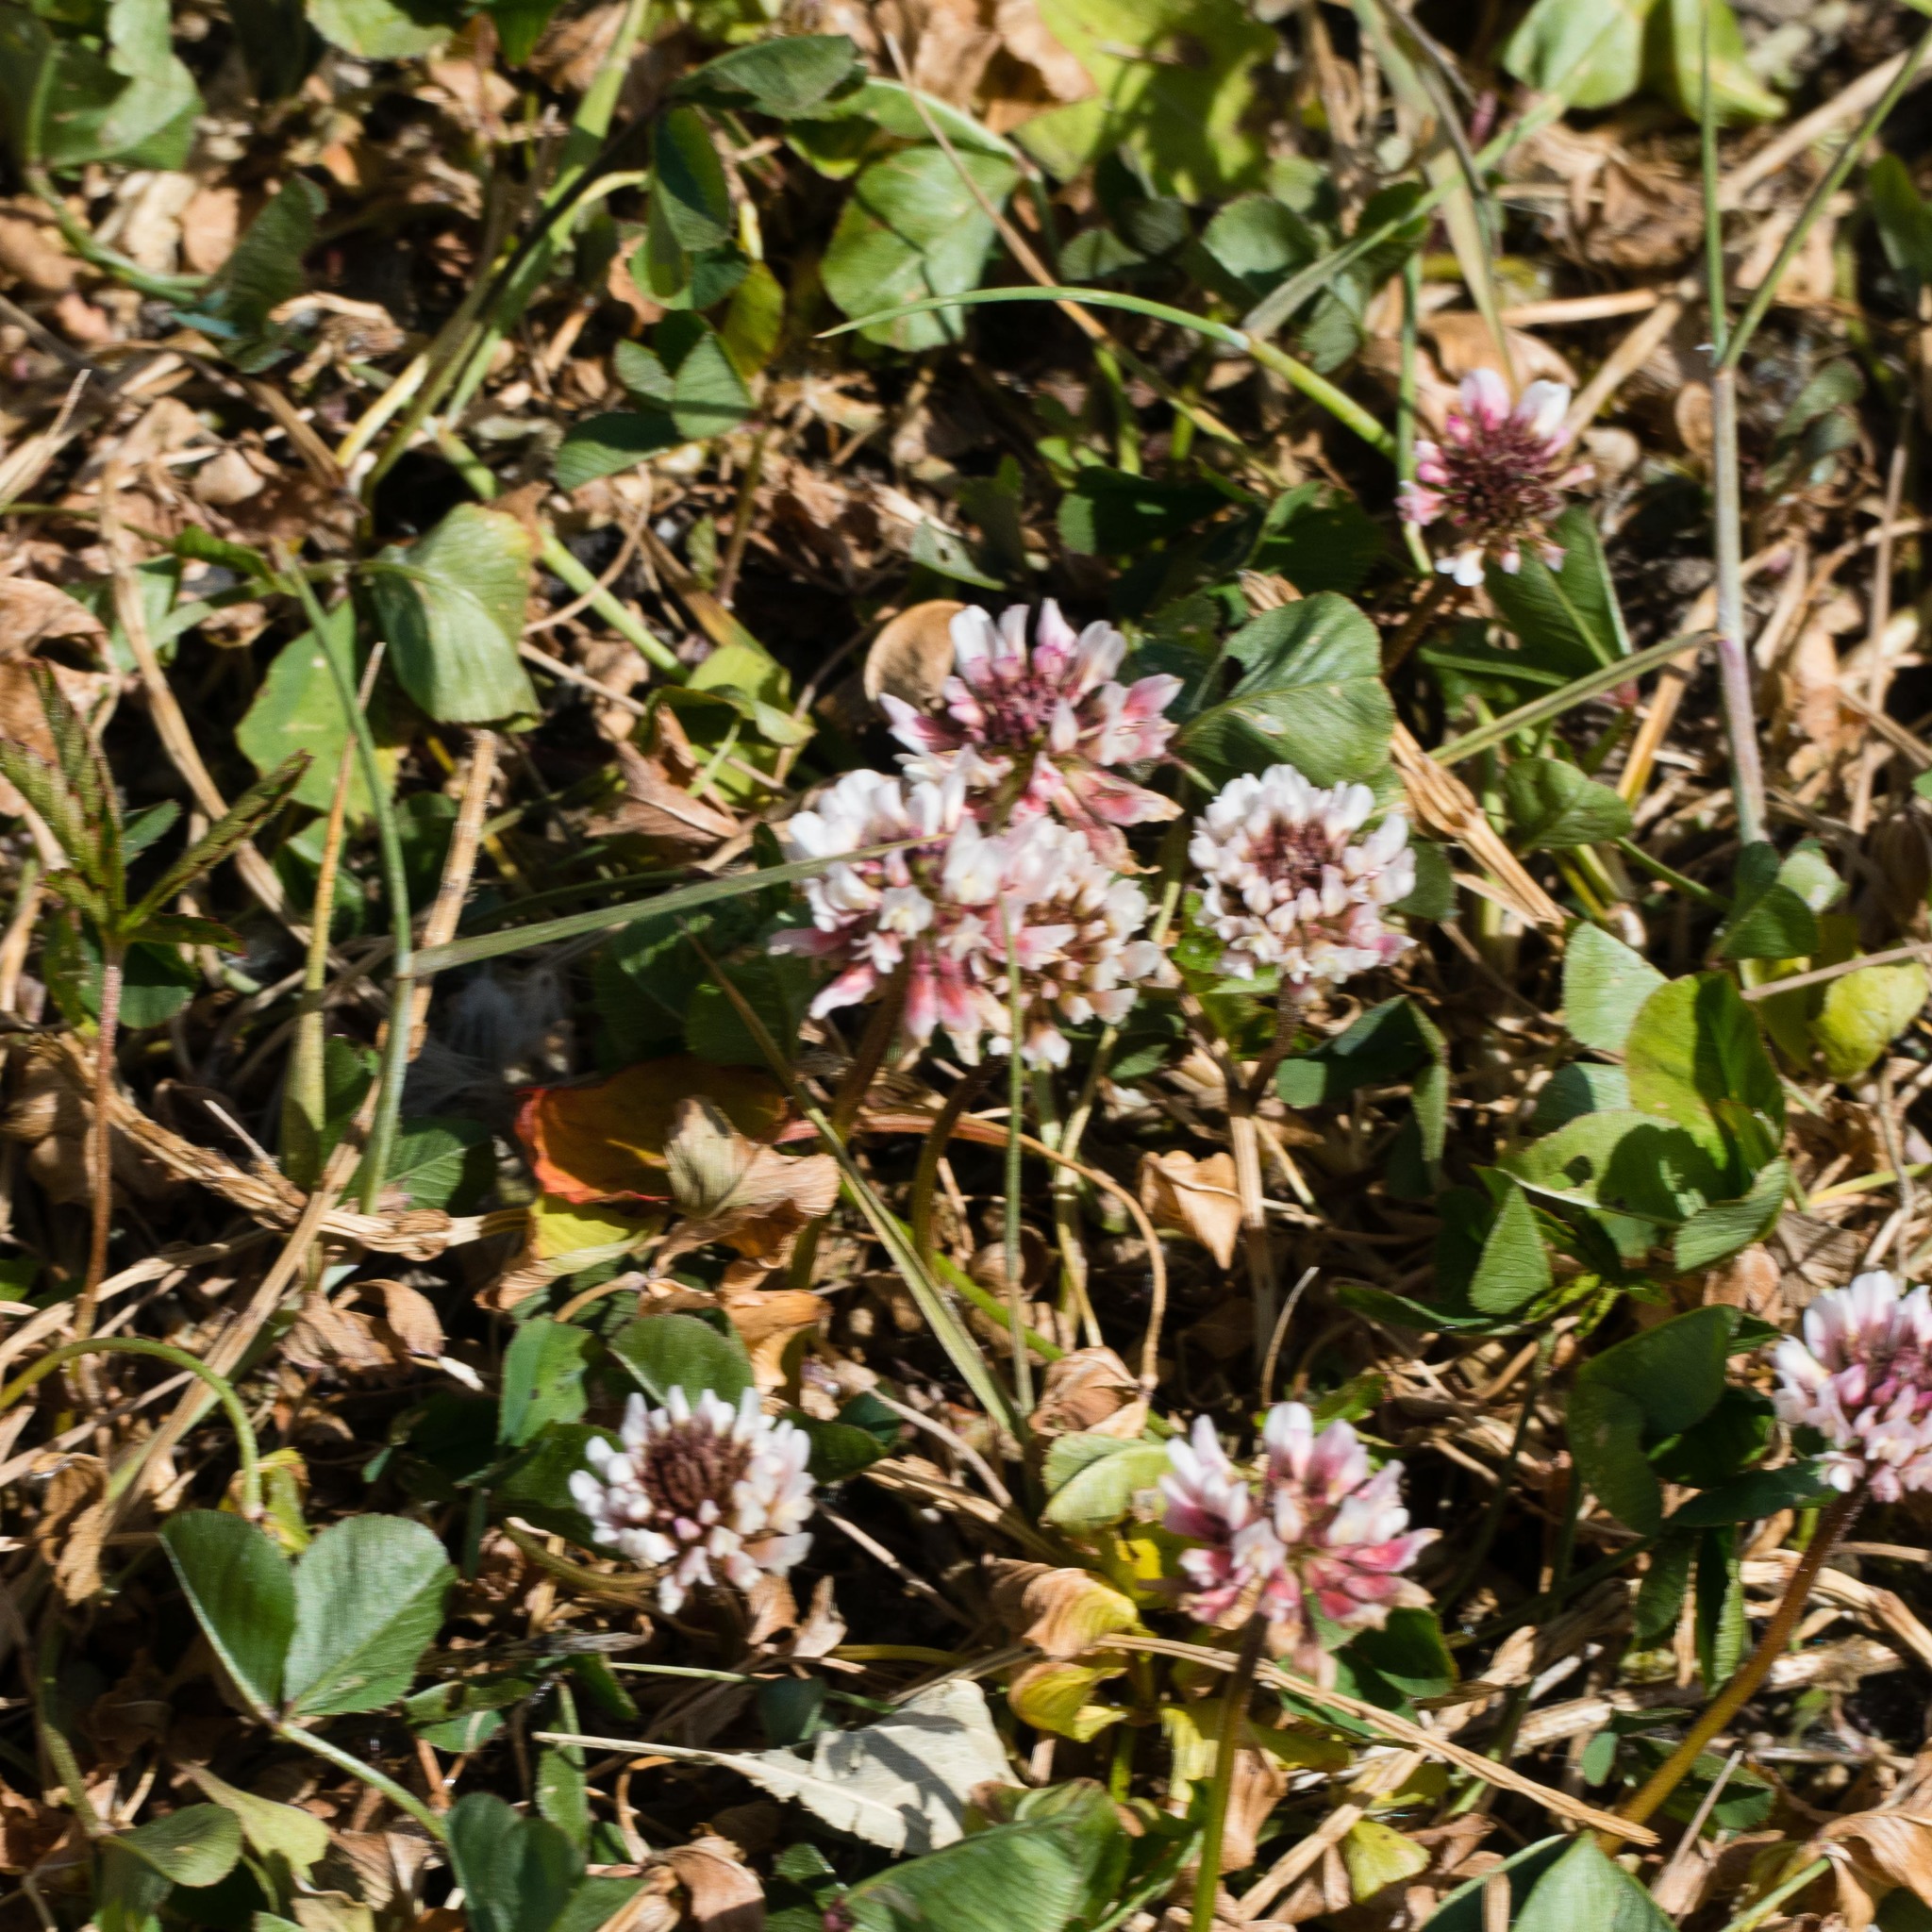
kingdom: Plantae
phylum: Tracheophyta
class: Magnoliopsida
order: Fabales
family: Fabaceae
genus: Trifolium
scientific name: Trifolium repens
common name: White clover
